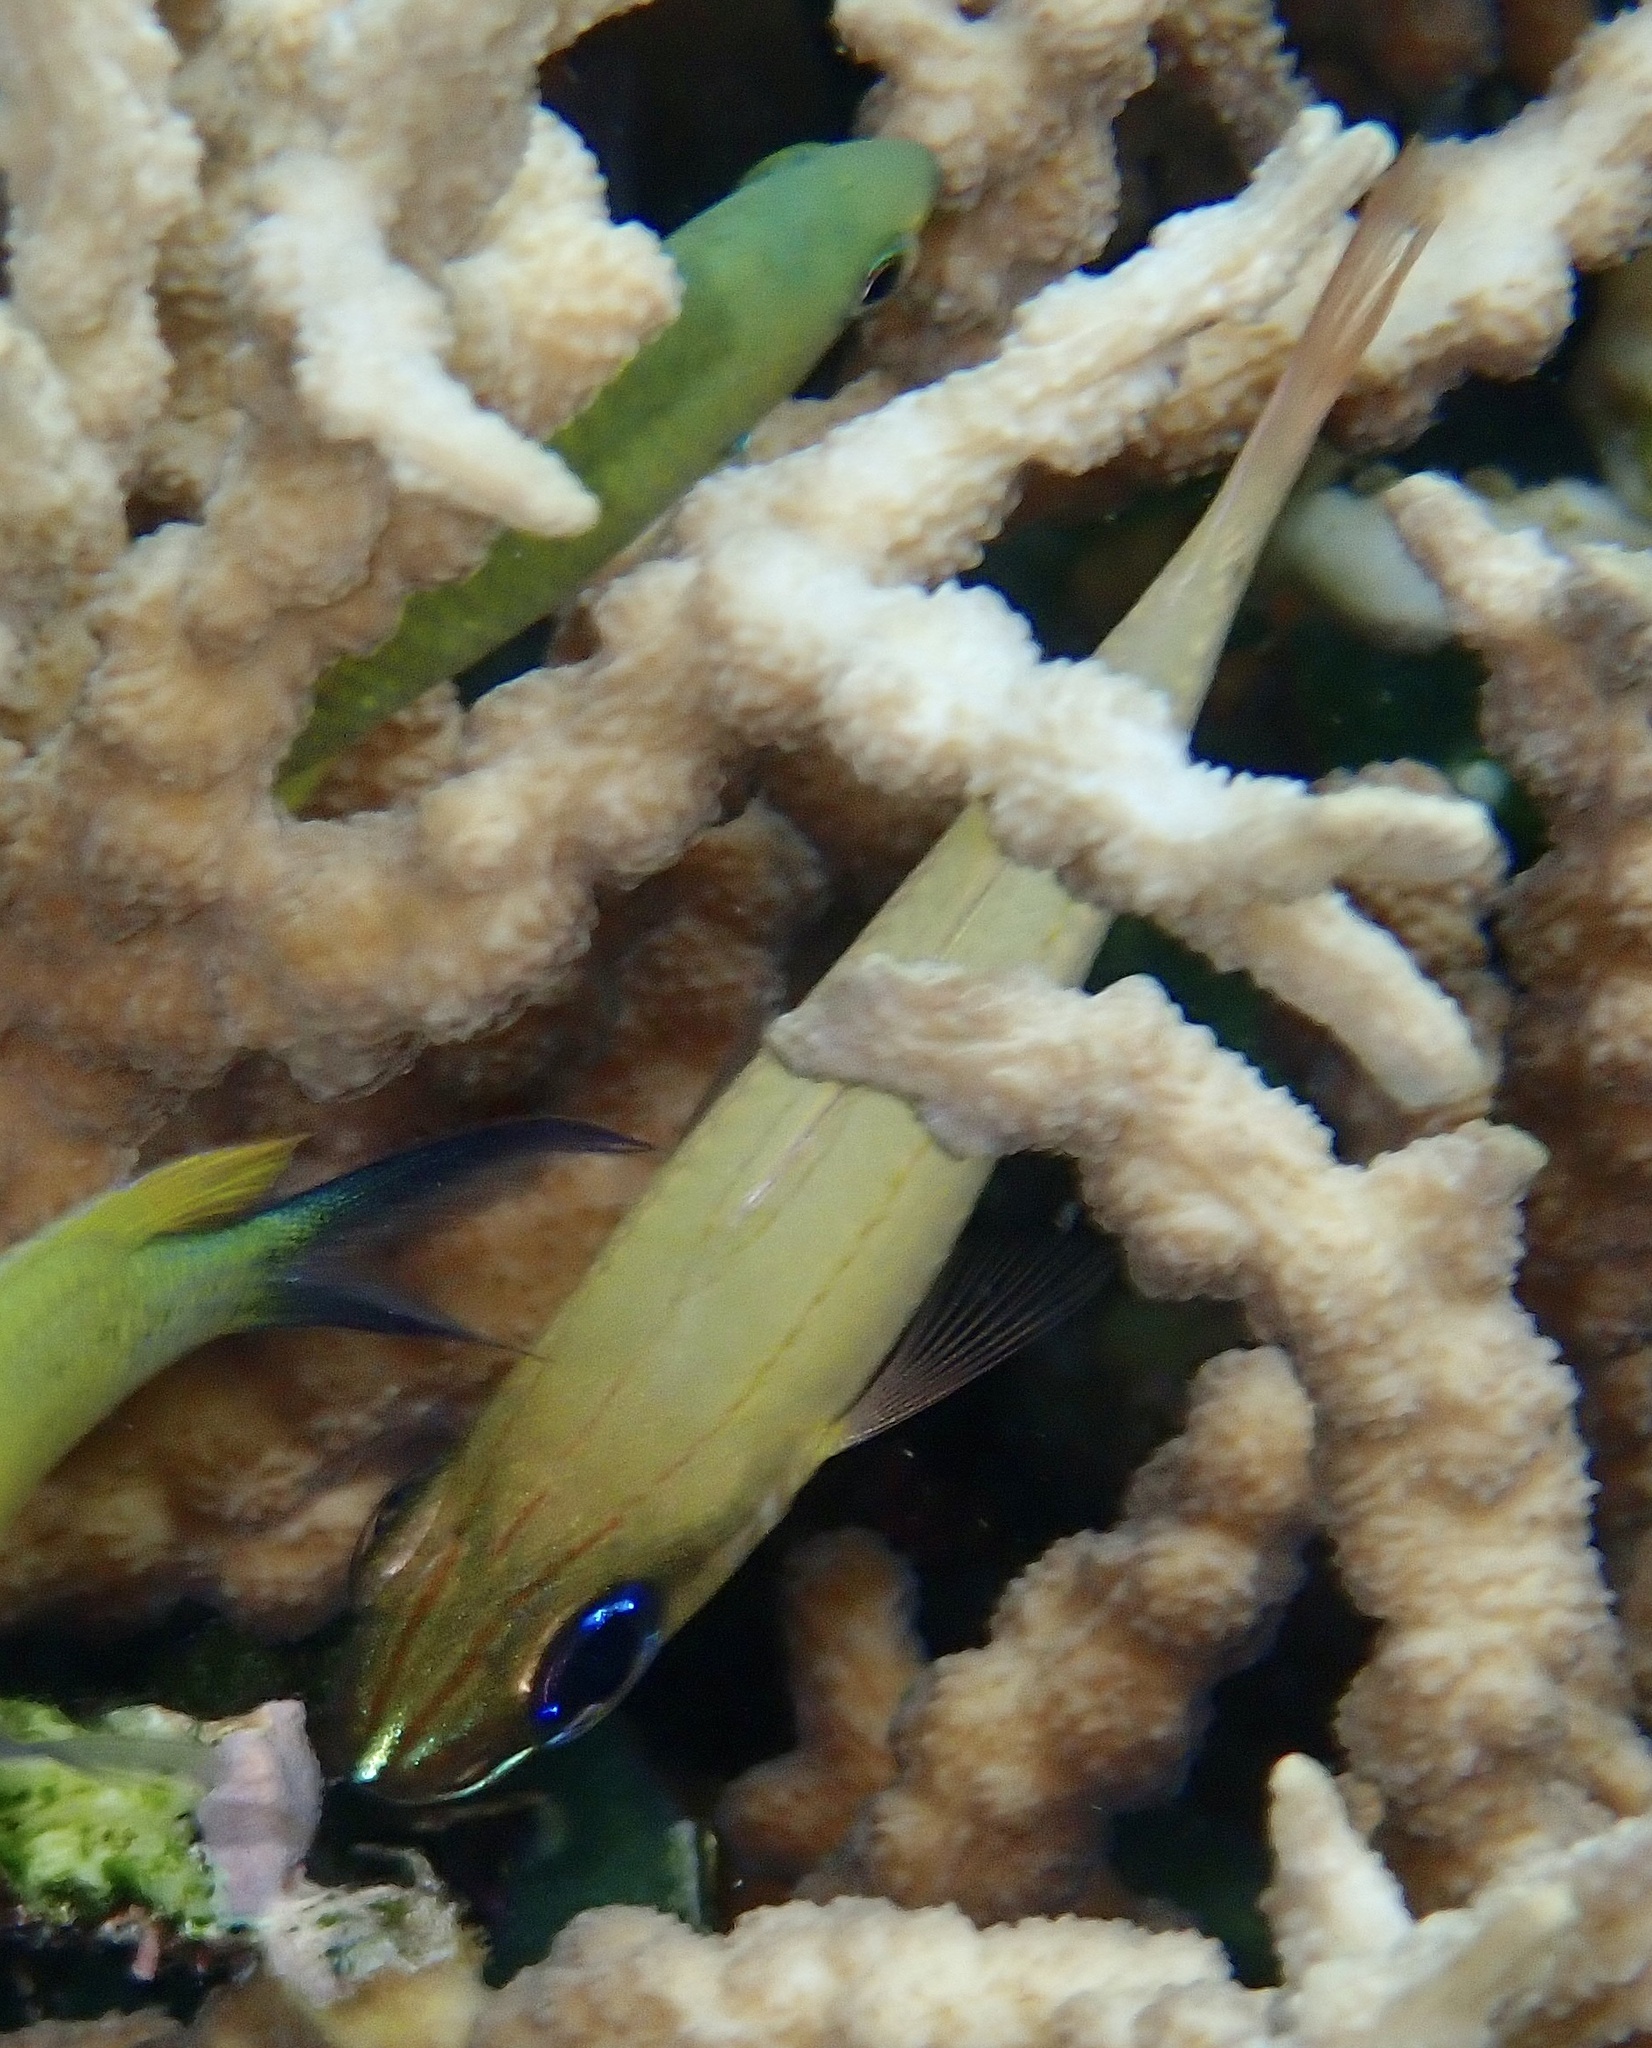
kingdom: Animalia
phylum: Chordata
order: Perciformes
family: Apogonidae
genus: Ostorhinchus
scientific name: Ostorhinchus sealei
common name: Seale's cardinalfish
